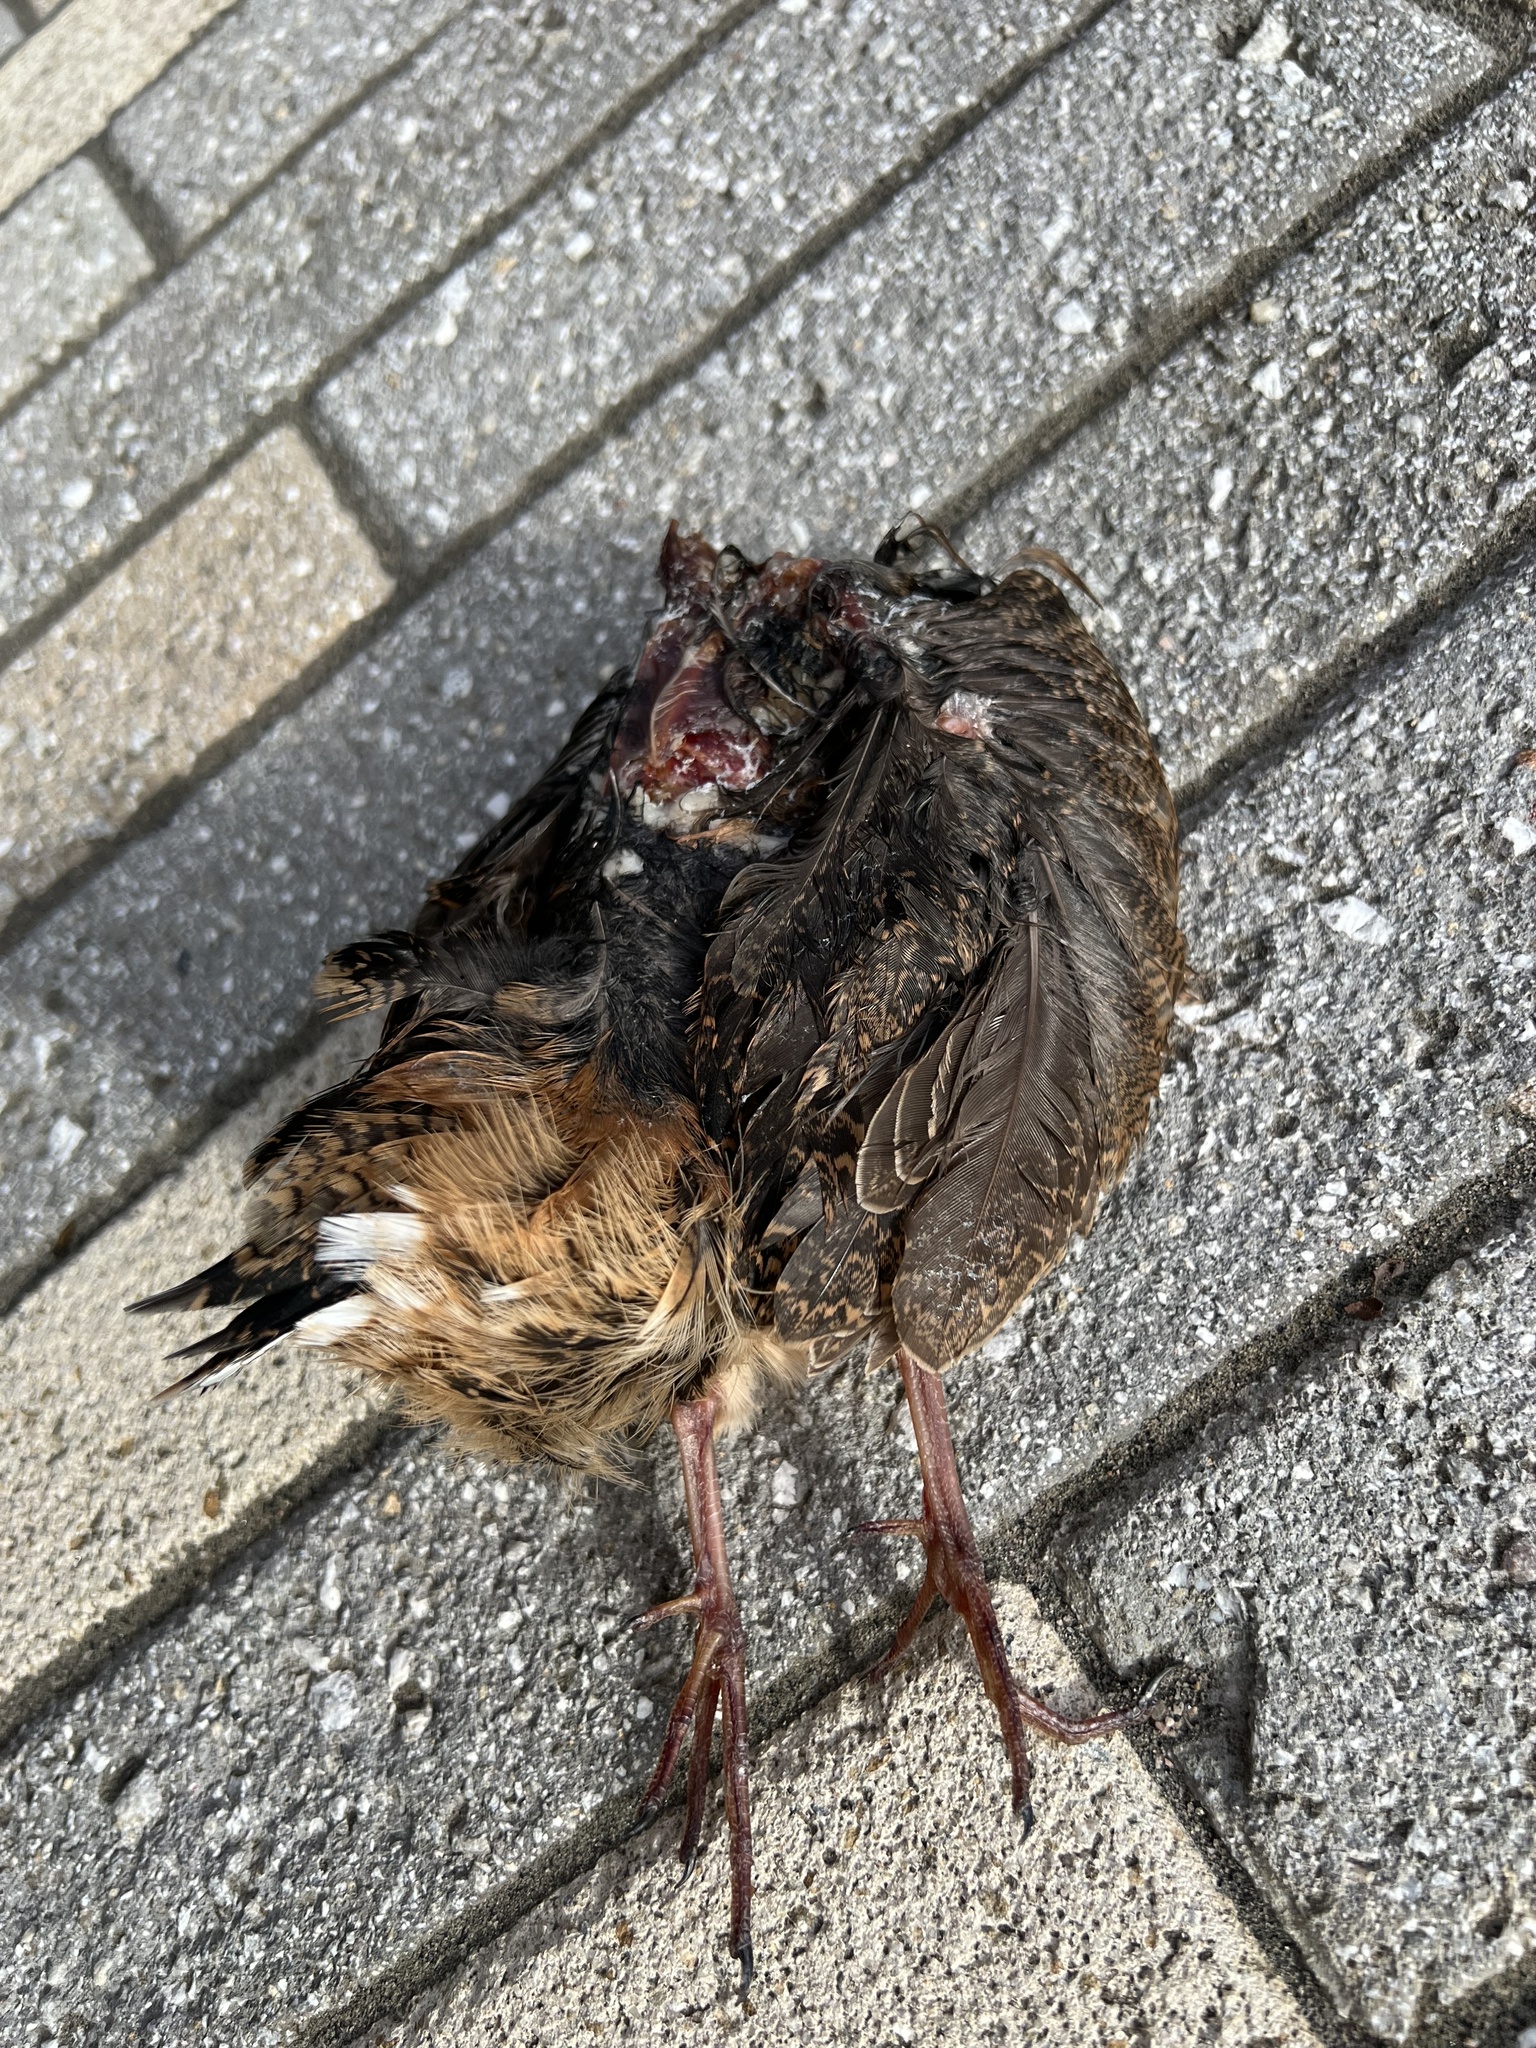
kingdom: Animalia
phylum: Chordata
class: Aves
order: Charadriiformes
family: Scolopacidae
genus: Scolopax
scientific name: Scolopax minor
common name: American woodcock
